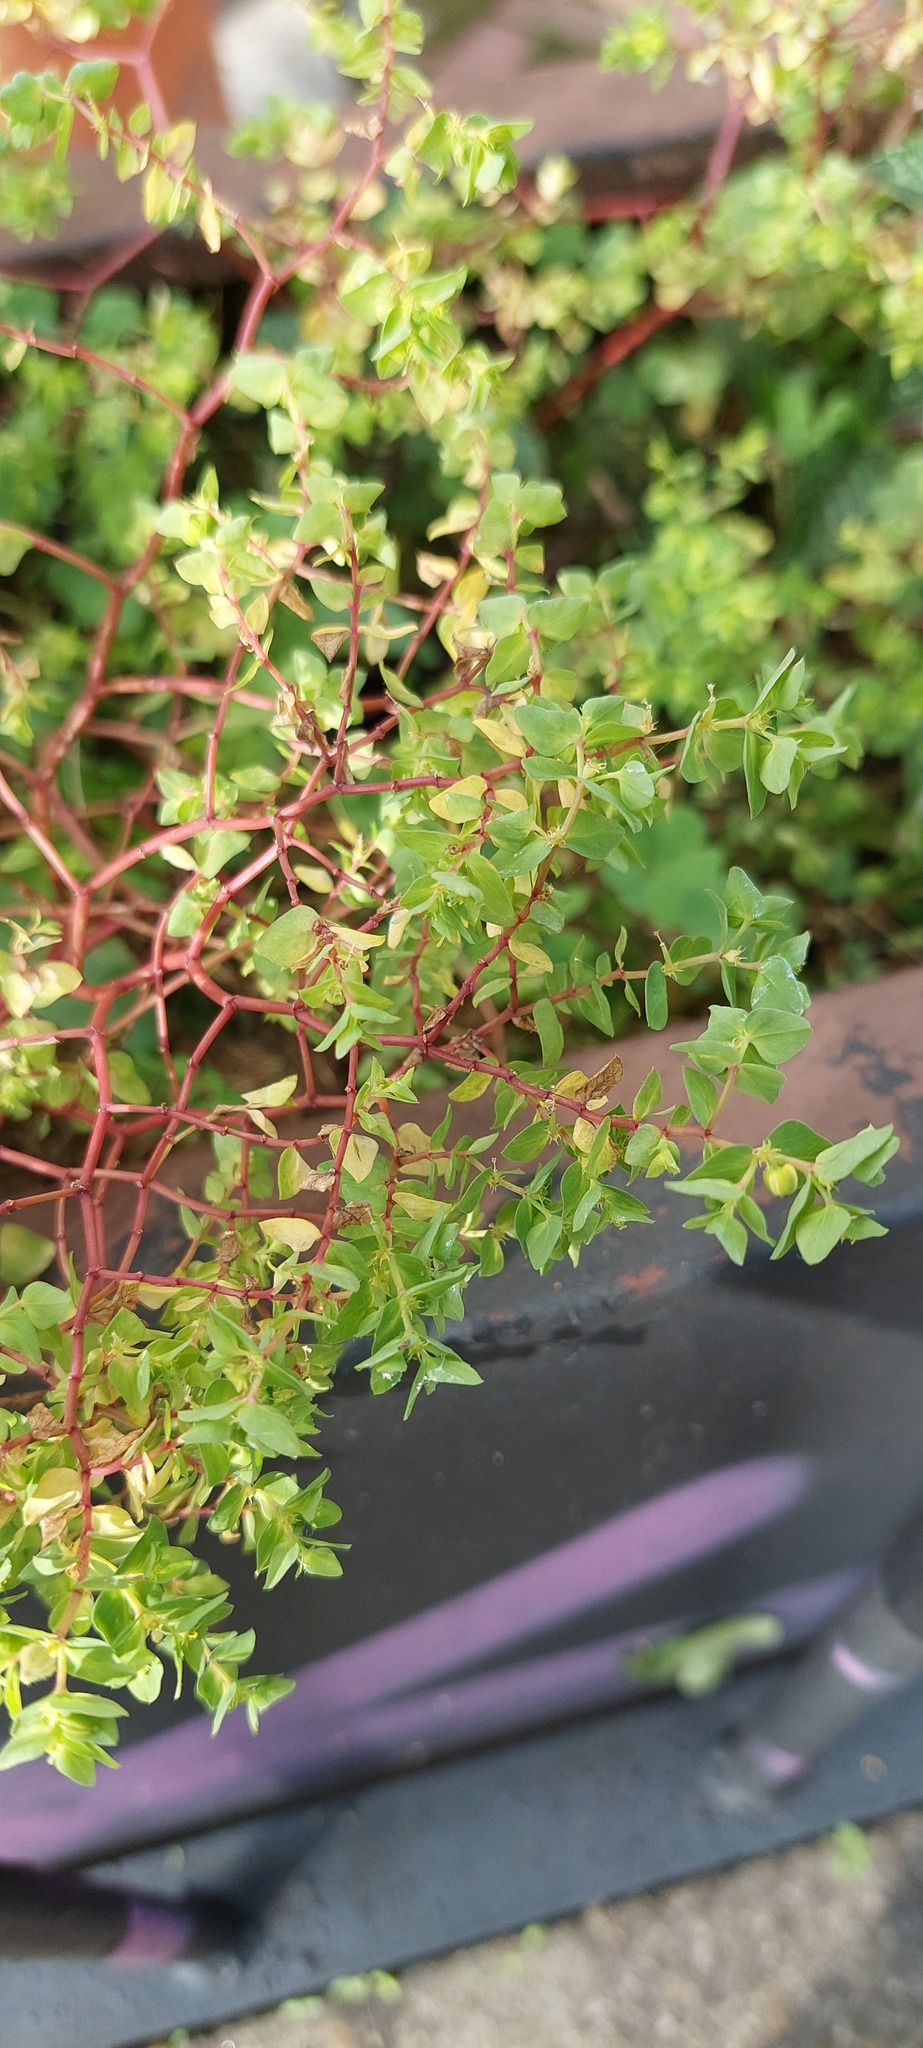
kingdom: Plantae
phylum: Tracheophyta
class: Magnoliopsida
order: Malpighiales
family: Euphorbiaceae
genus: Euphorbia
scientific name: Euphorbia peplus
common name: Petty spurge
